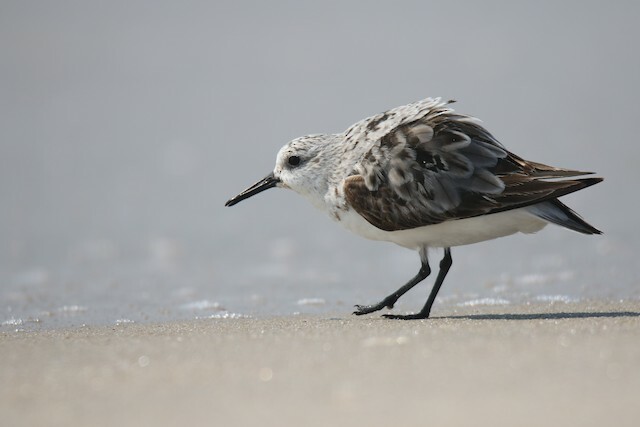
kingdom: Animalia
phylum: Chordata
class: Aves
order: Charadriiformes
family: Scolopacidae
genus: Calidris
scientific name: Calidris alba
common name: Sanderling
